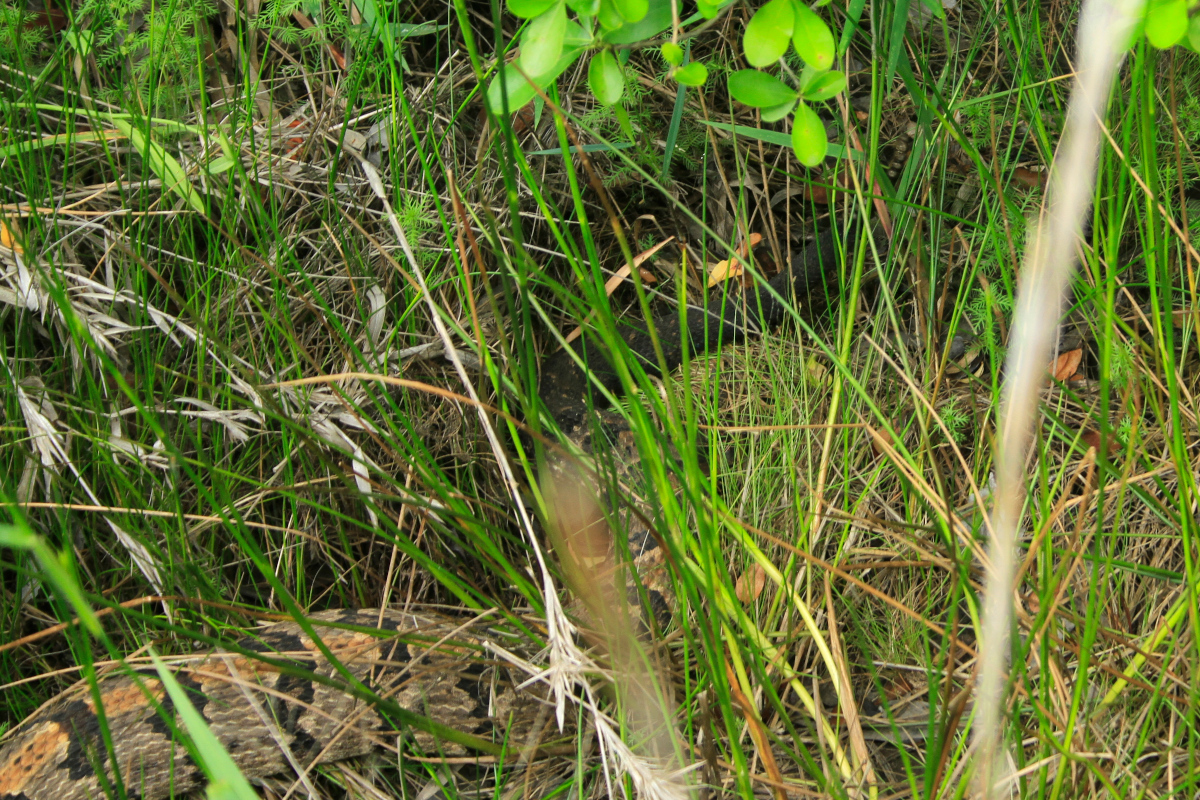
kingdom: Animalia
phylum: Chordata
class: Squamata
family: Viperidae
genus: Crotalus
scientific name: Crotalus horridus
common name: Timber rattlesnake
